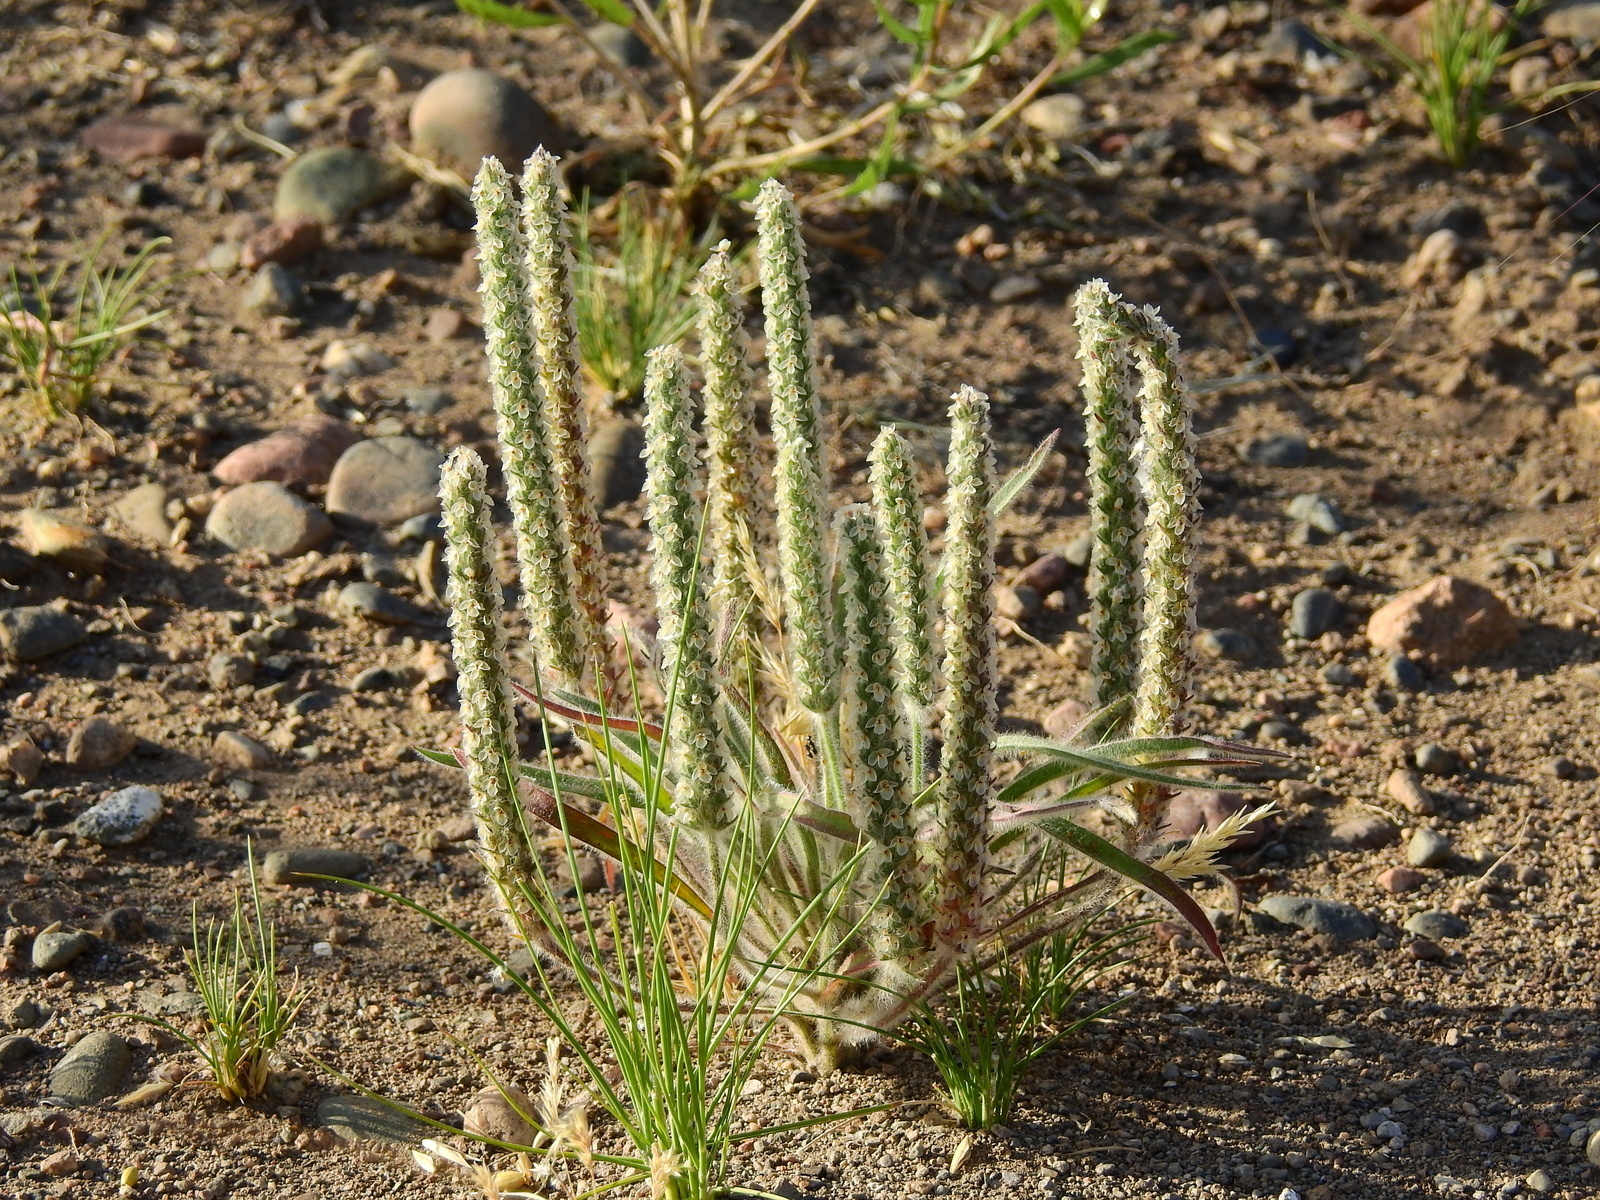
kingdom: Plantae
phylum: Tracheophyta
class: Magnoliopsida
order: Lamiales
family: Plantaginaceae
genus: Plantago
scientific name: Plantago patagonica
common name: Patagonia indian-wheat
